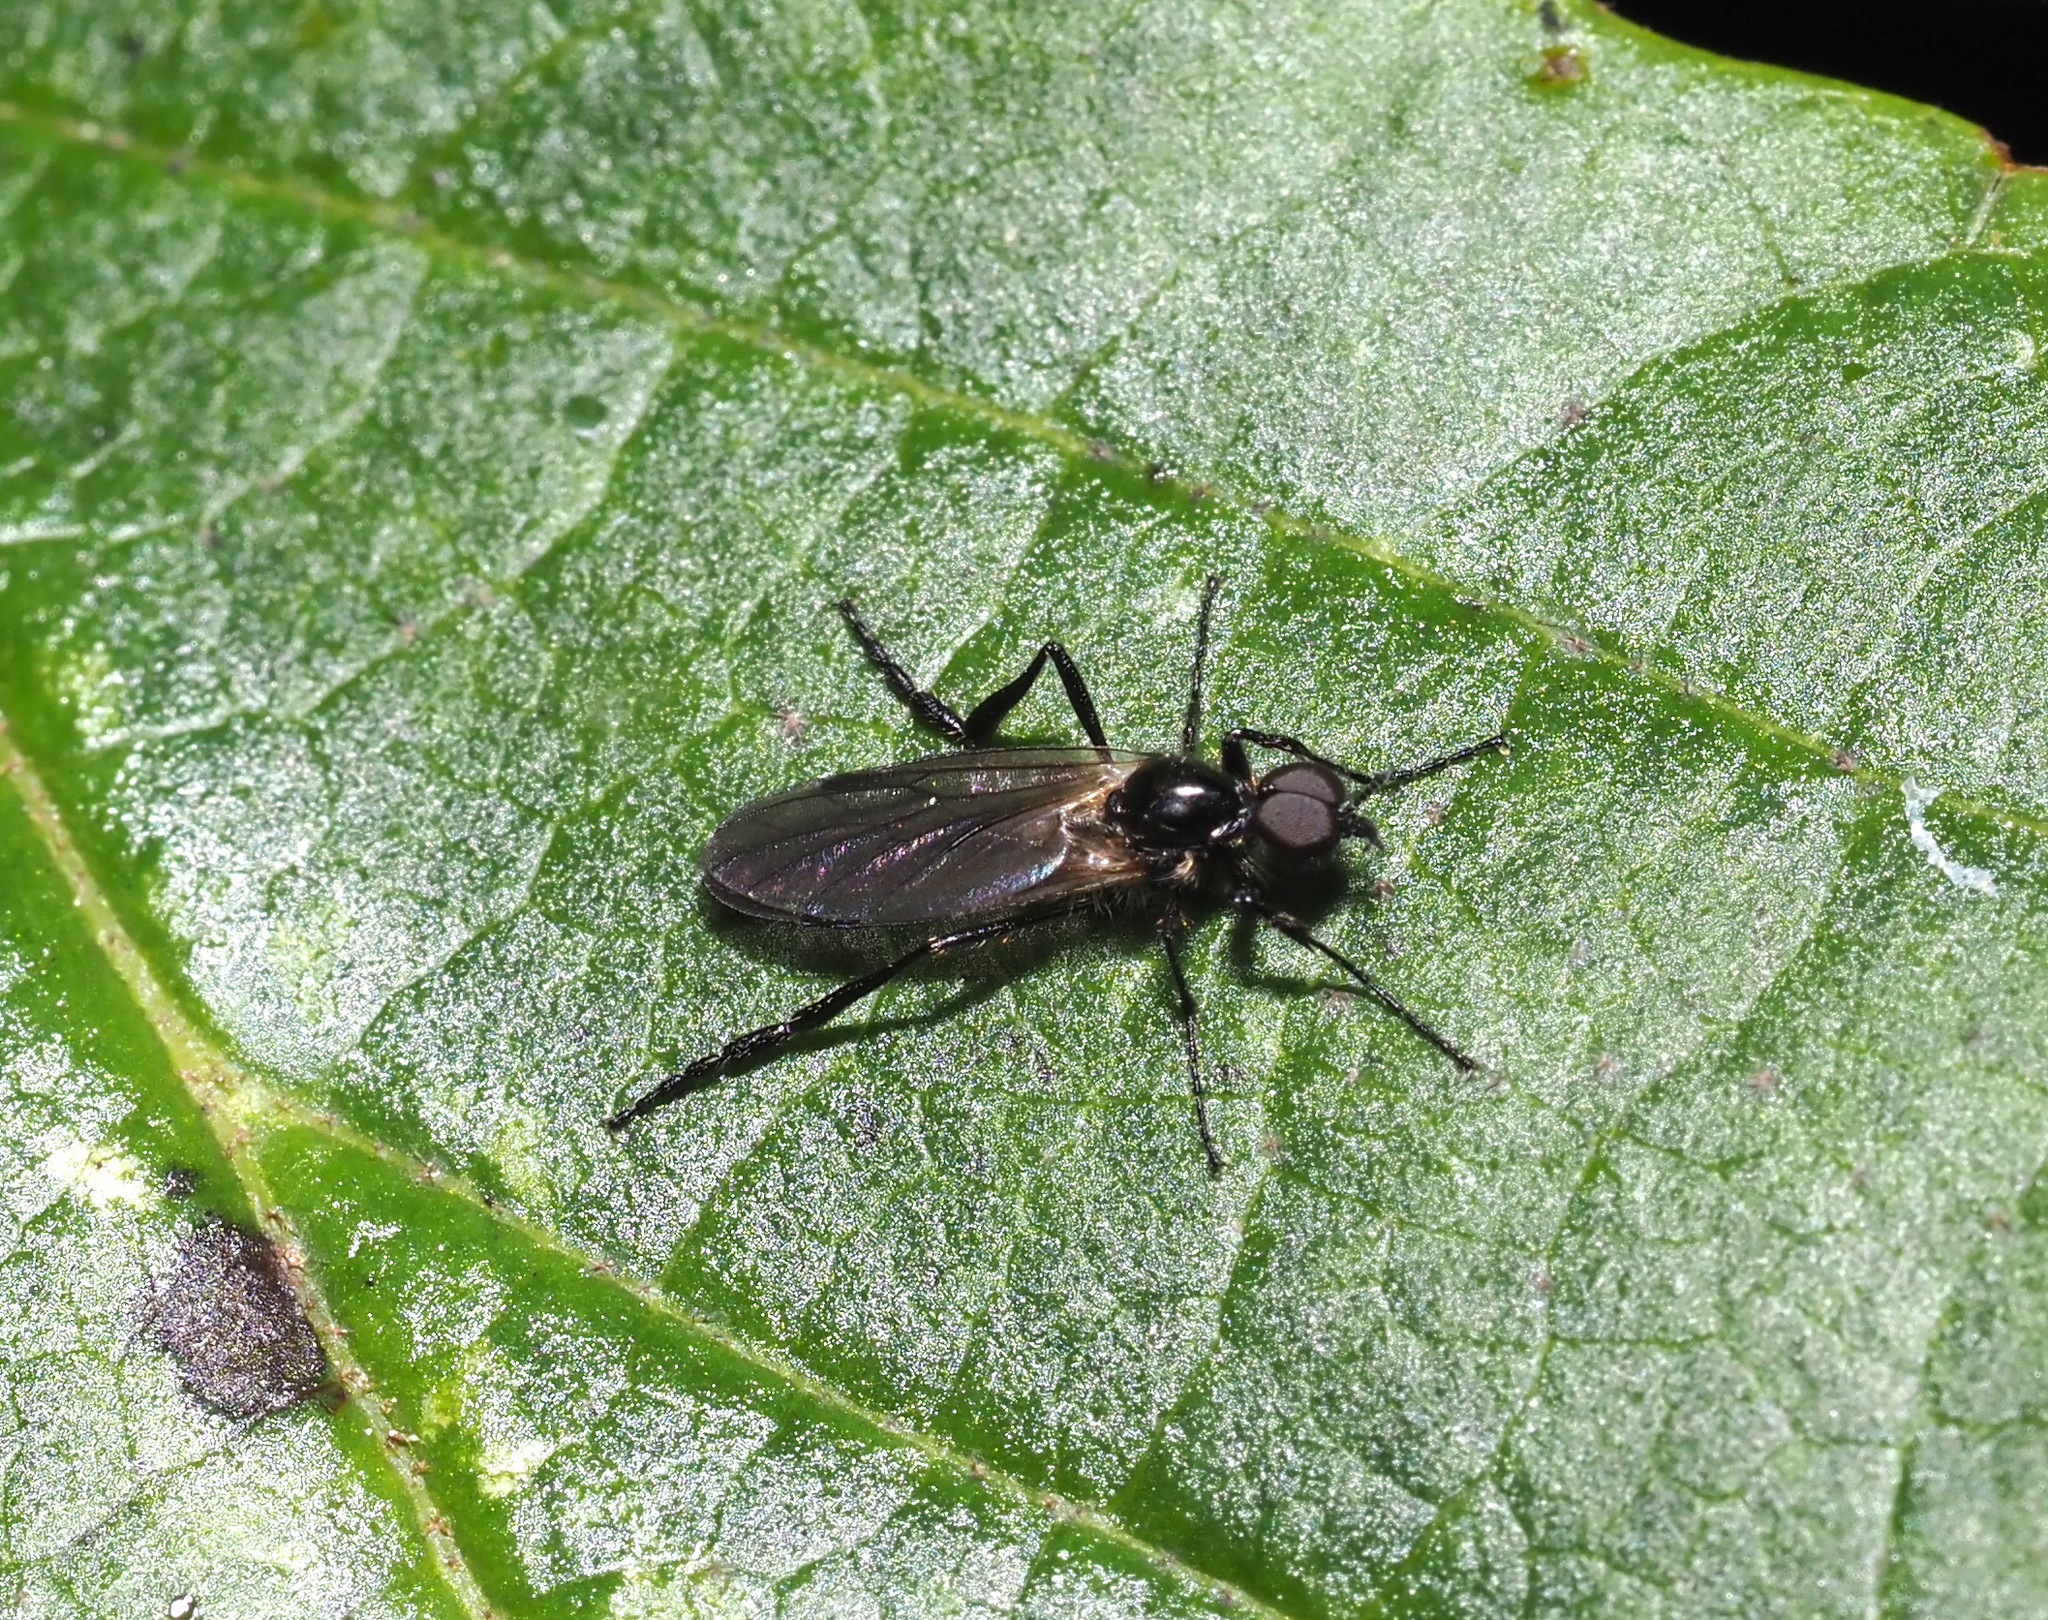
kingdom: Animalia
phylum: Arthropoda
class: Insecta
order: Diptera
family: Bibionidae
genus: Bibio
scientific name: Bibio
